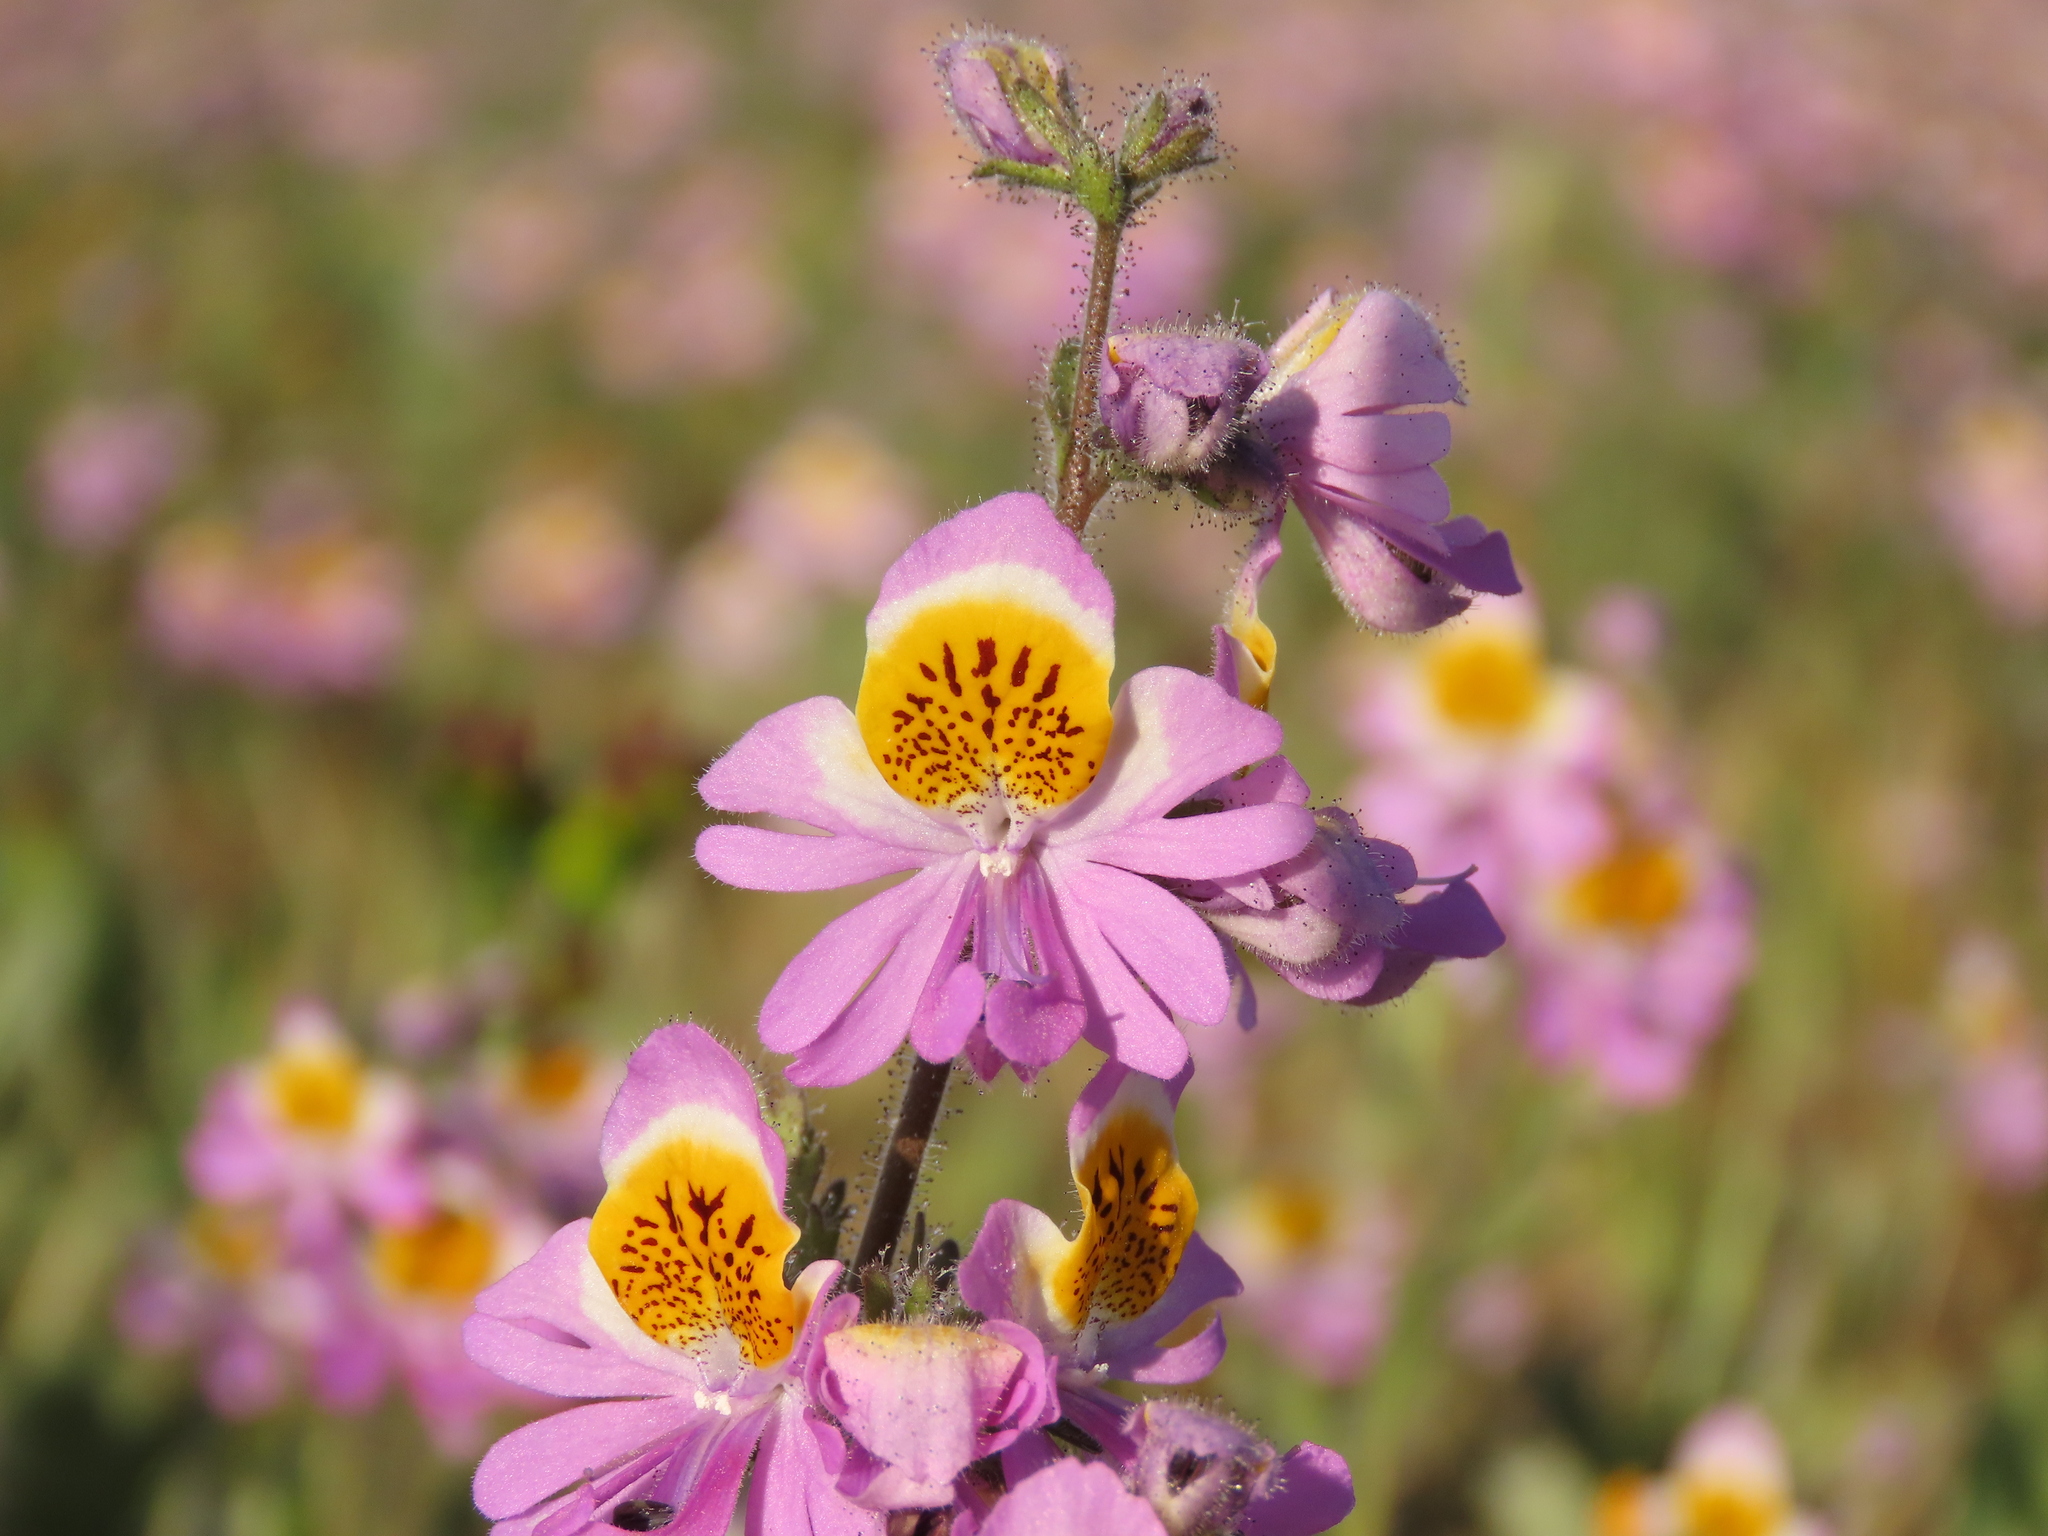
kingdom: Plantae
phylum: Tracheophyta
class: Magnoliopsida
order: Solanales
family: Solanaceae
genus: Schizanthus
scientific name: Schizanthus litoralis
